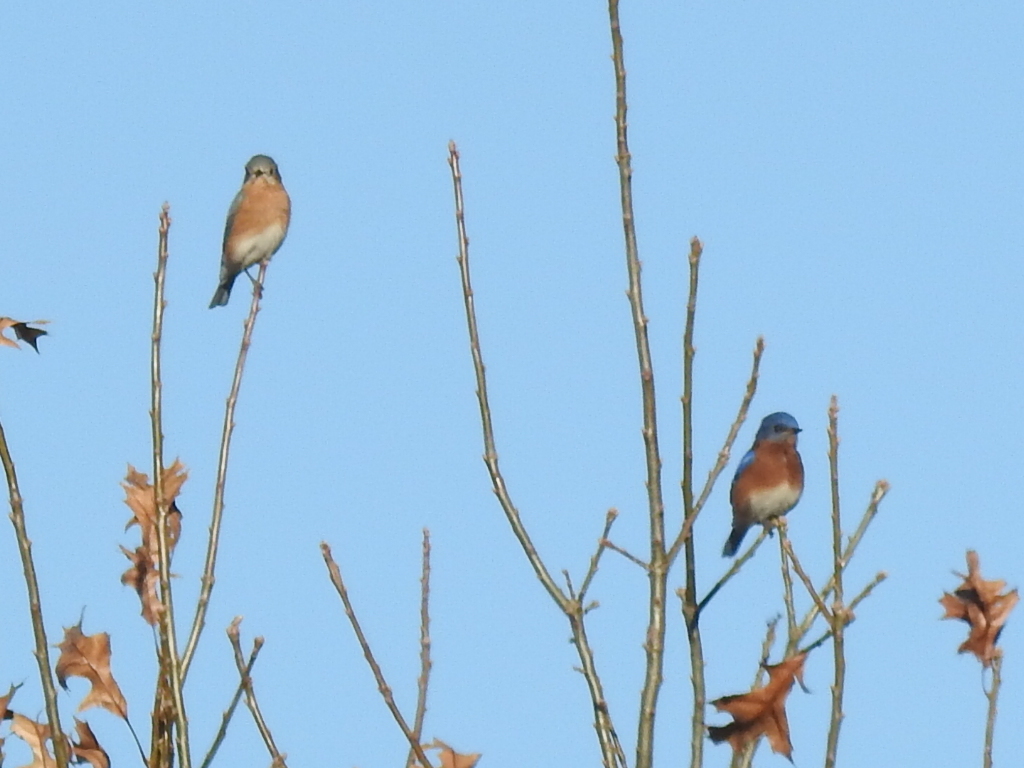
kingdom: Animalia
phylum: Chordata
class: Aves
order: Passeriformes
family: Turdidae
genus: Sialia
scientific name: Sialia sialis
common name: Eastern bluebird
